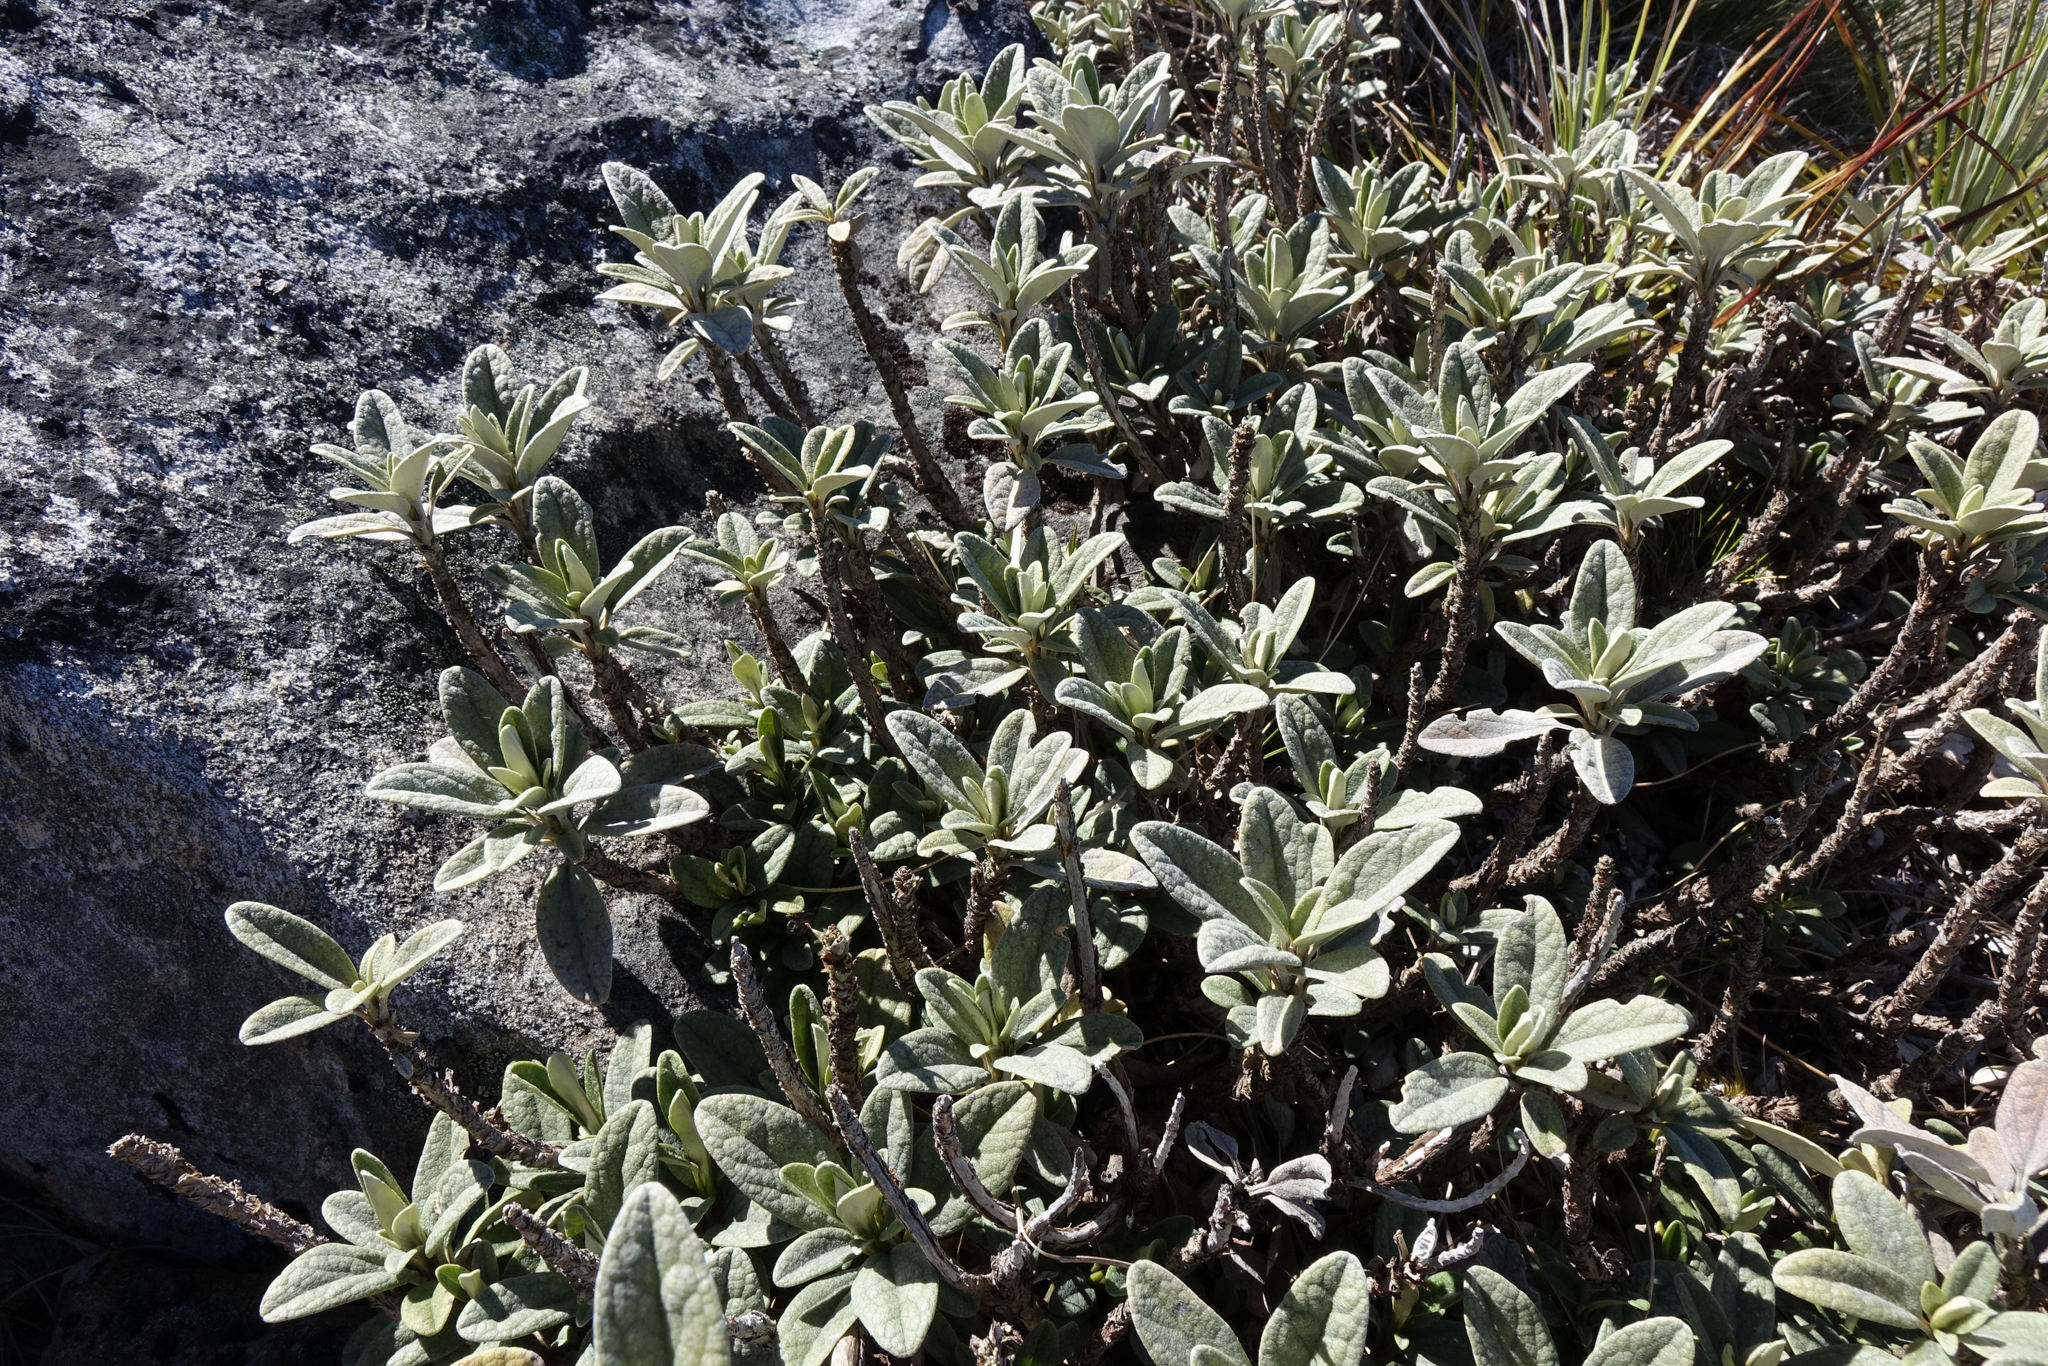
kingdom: Plantae
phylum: Tracheophyta
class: Magnoliopsida
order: Asterales
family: Asteraceae
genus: Brachyglottis
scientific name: Brachyglottis revoluta
